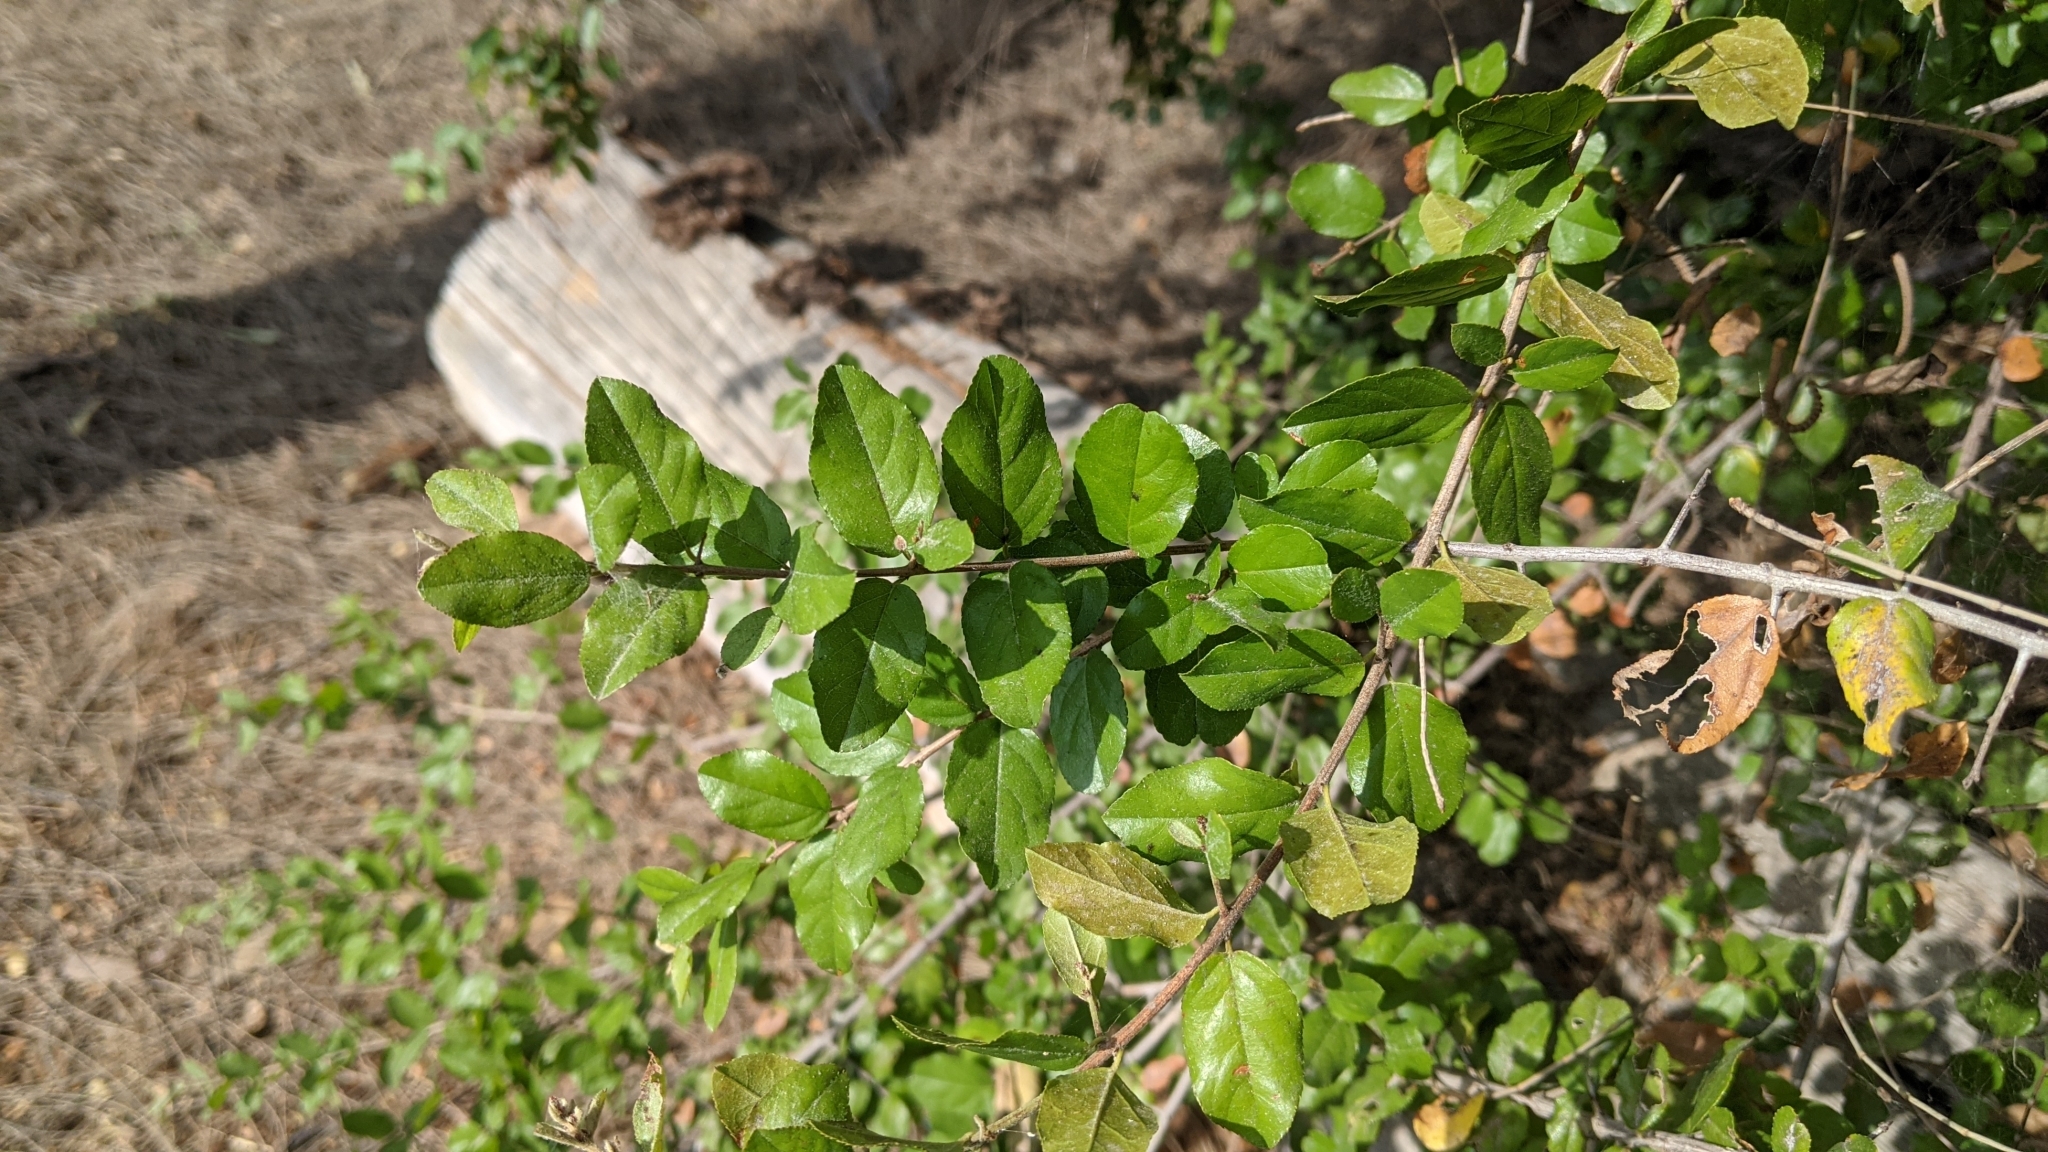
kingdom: Plantae
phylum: Tracheophyta
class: Magnoliopsida
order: Rosales
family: Rhamnaceae
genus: Sageretia
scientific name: Sageretia thea
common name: Pauper's-tea
